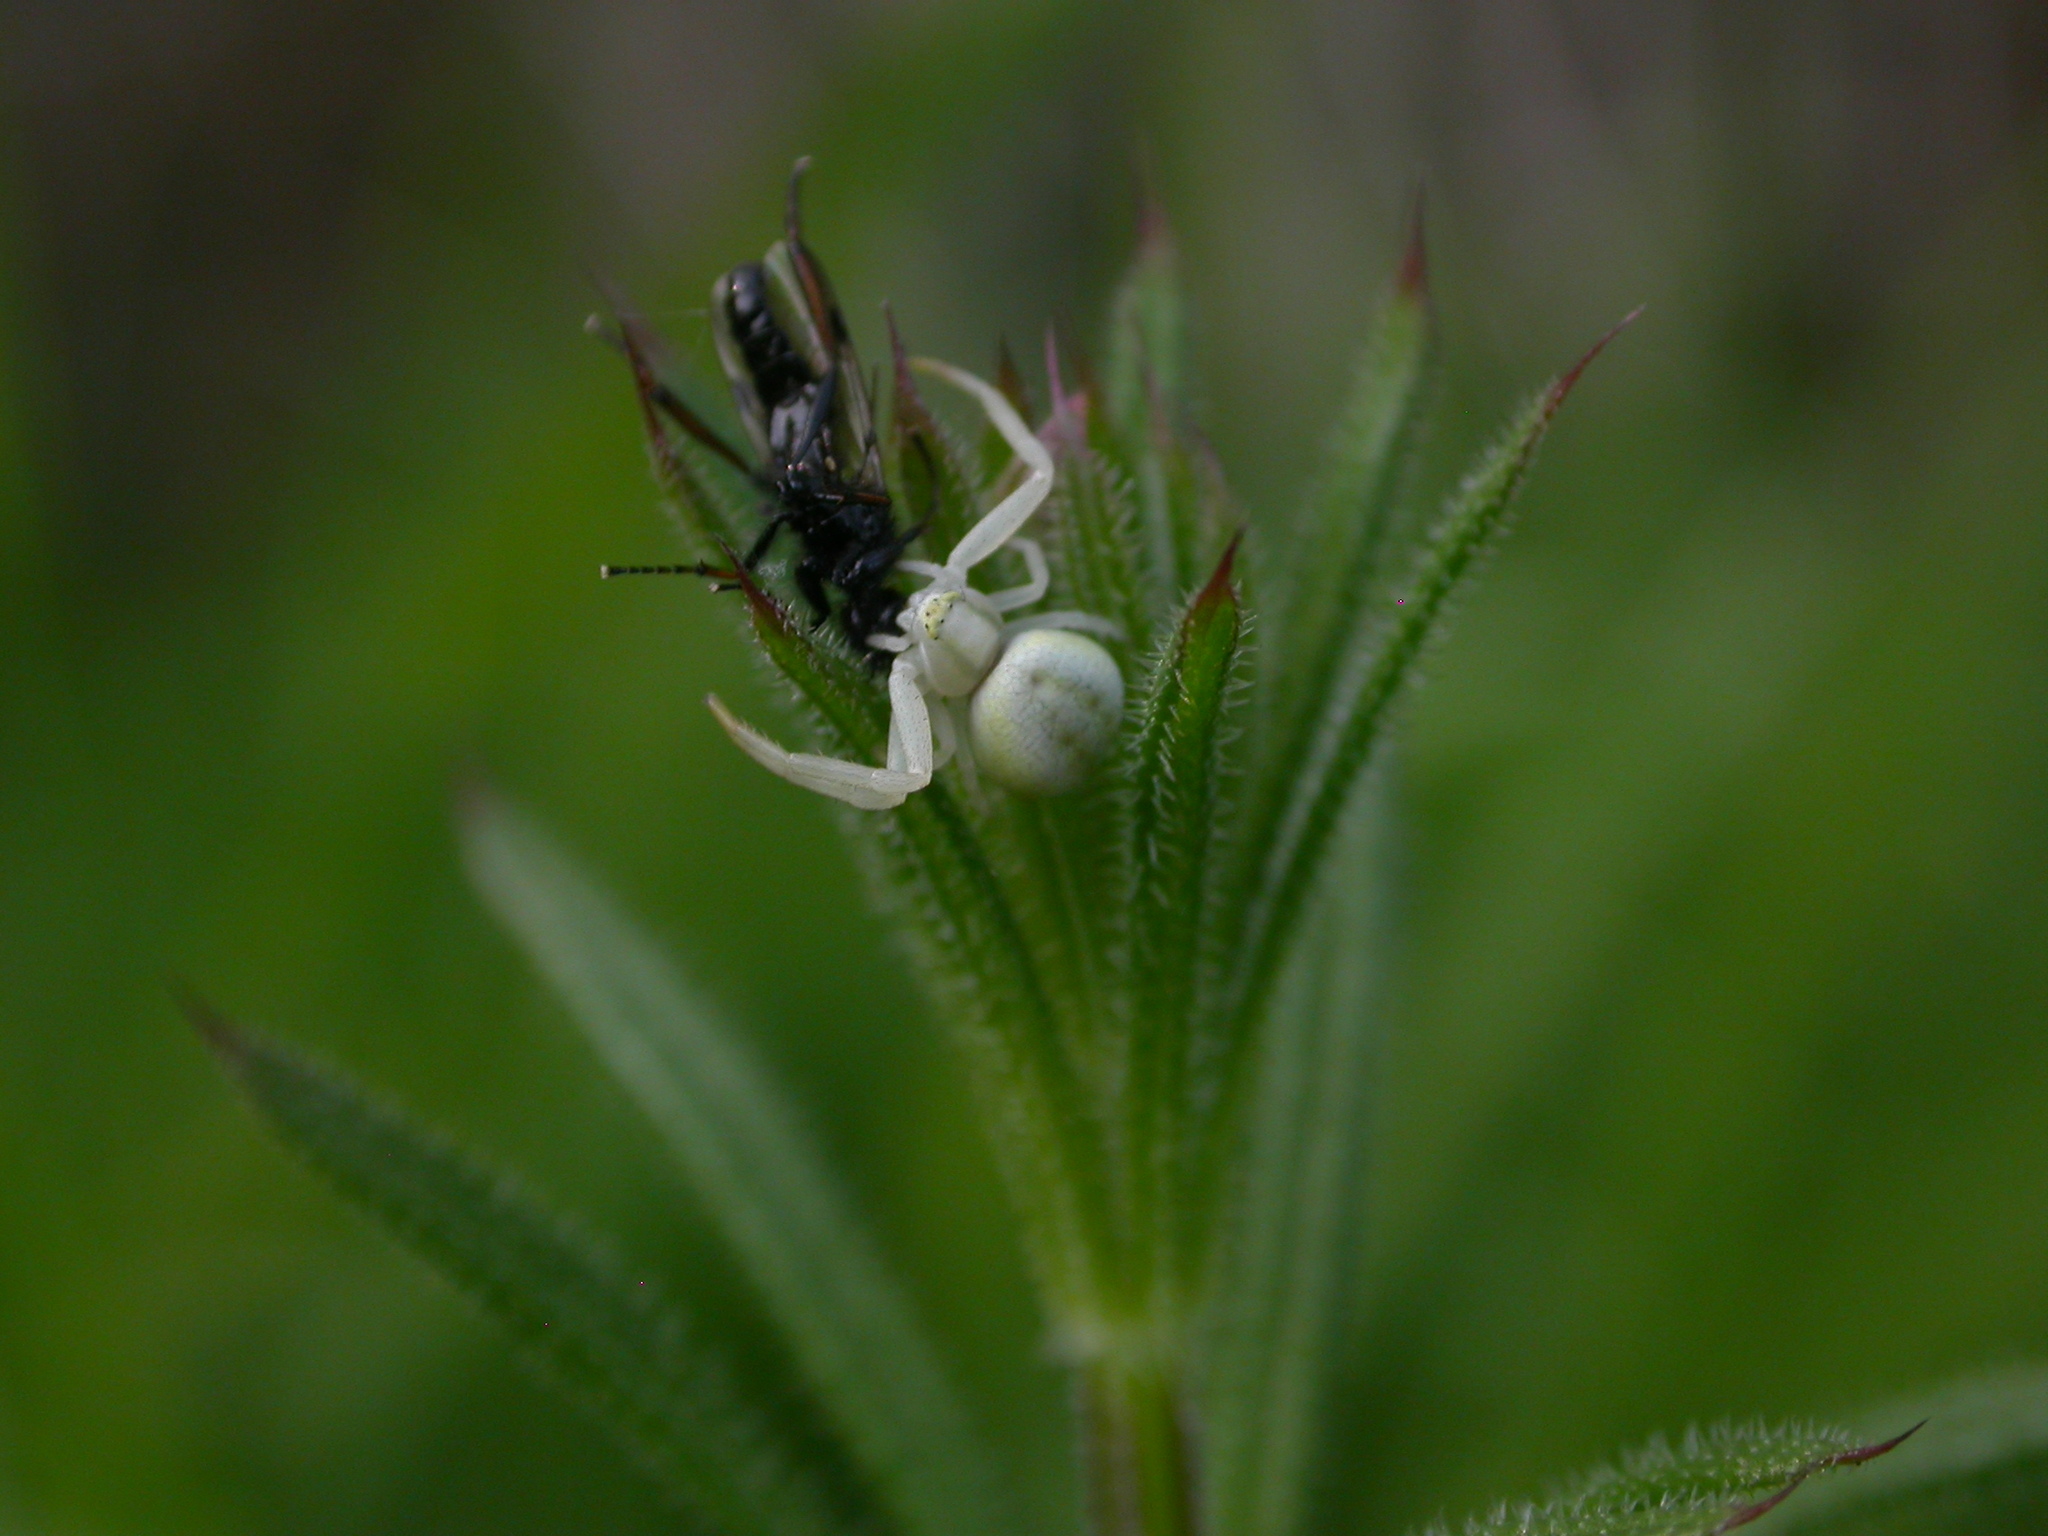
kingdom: Animalia
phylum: Arthropoda
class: Arachnida
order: Araneae
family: Thomisidae
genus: Misumena
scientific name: Misumena vatia
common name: Goldenrod crab spider
